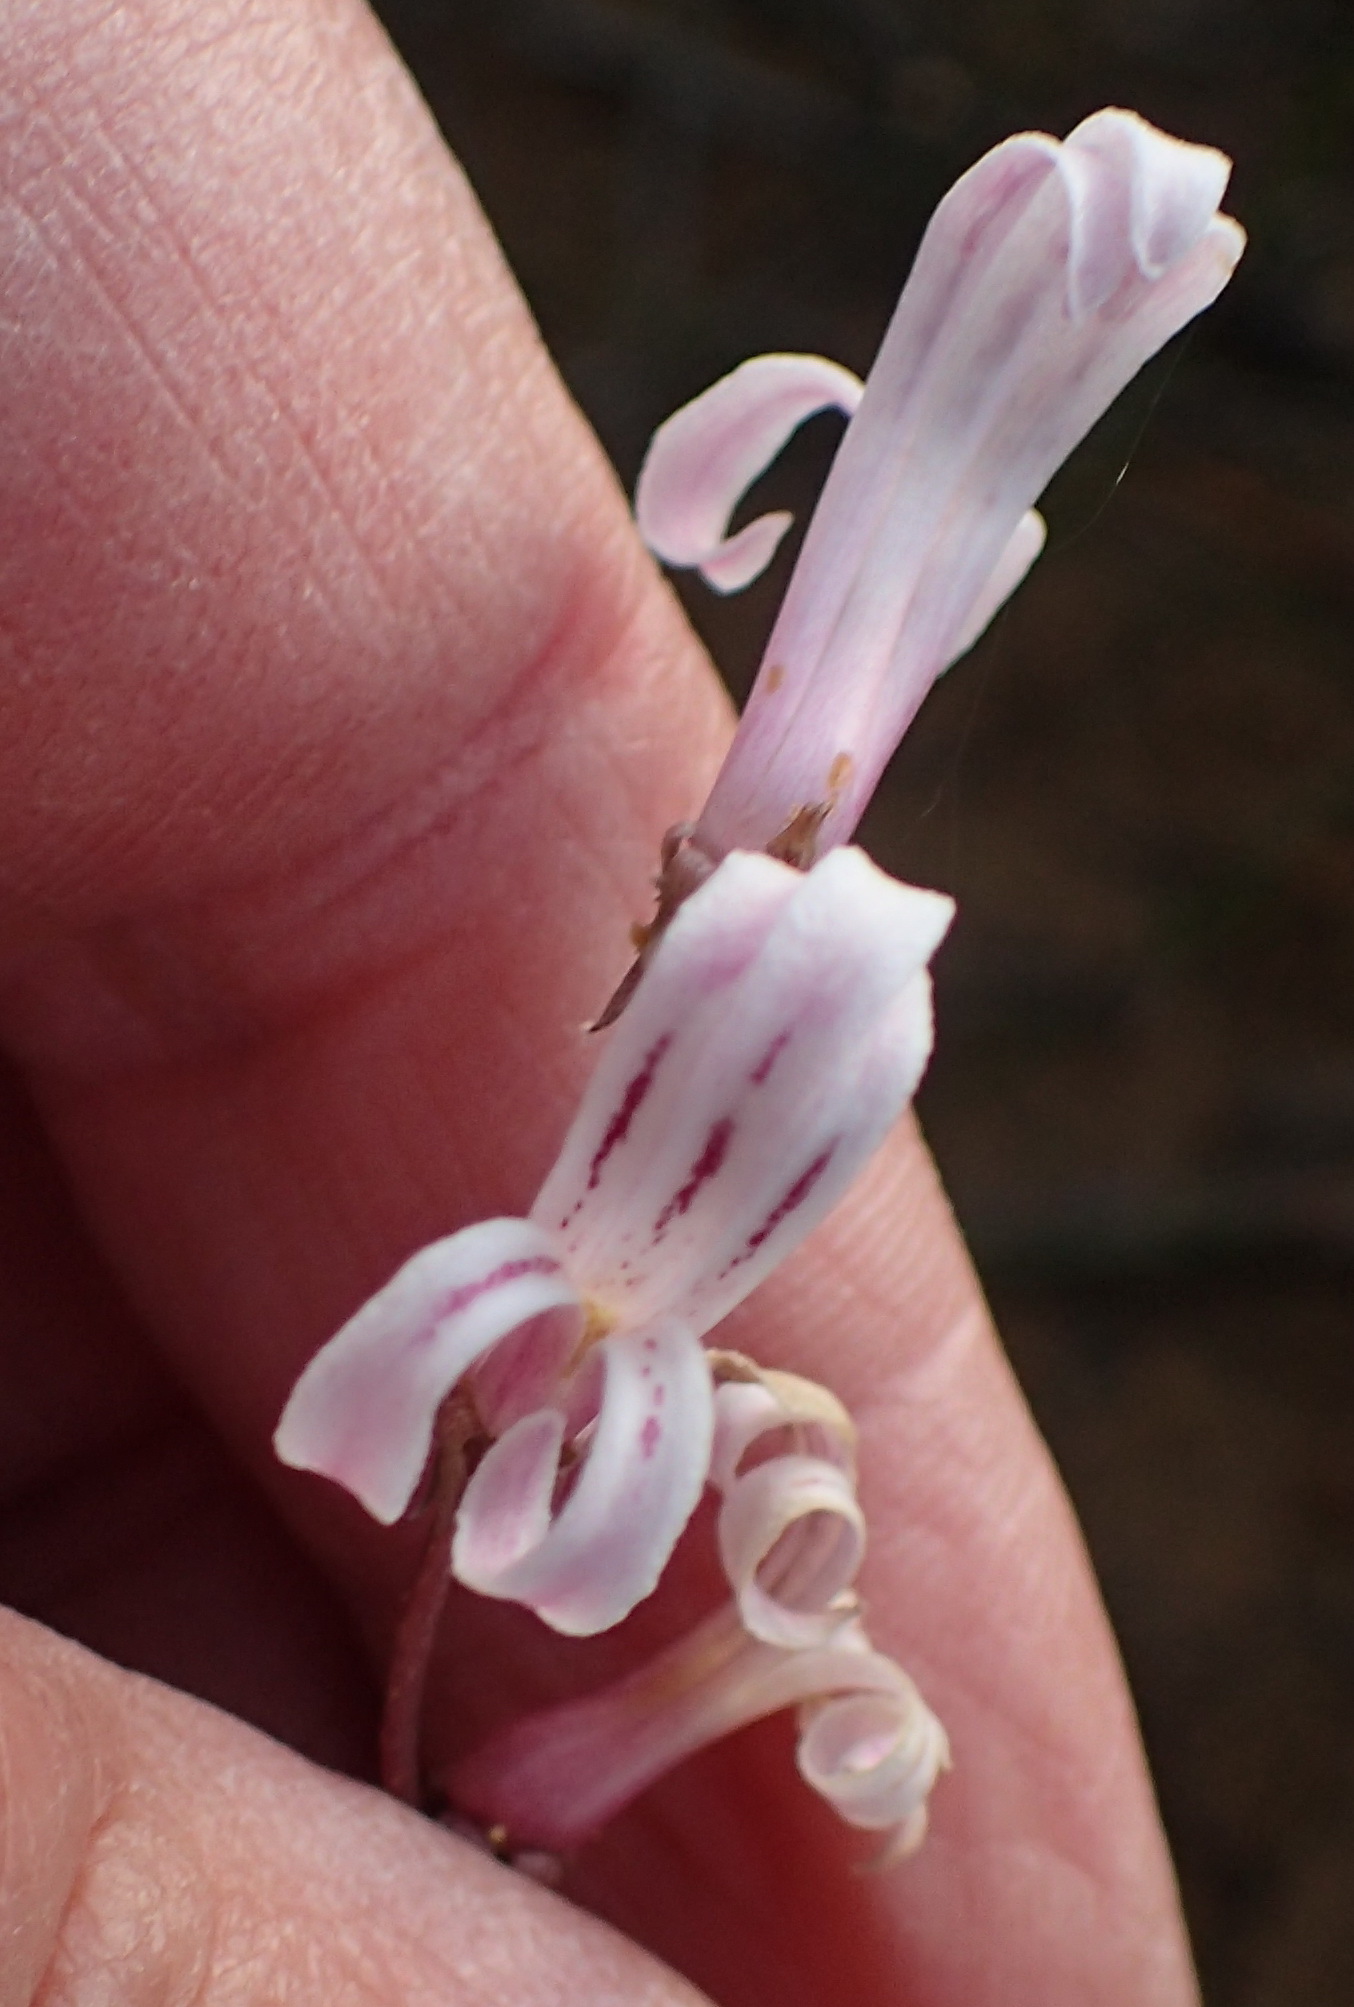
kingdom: Plantae
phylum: Tracheophyta
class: Magnoliopsida
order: Asterales
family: Campanulaceae
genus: Cyphia
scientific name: Cyphia phyteuma
